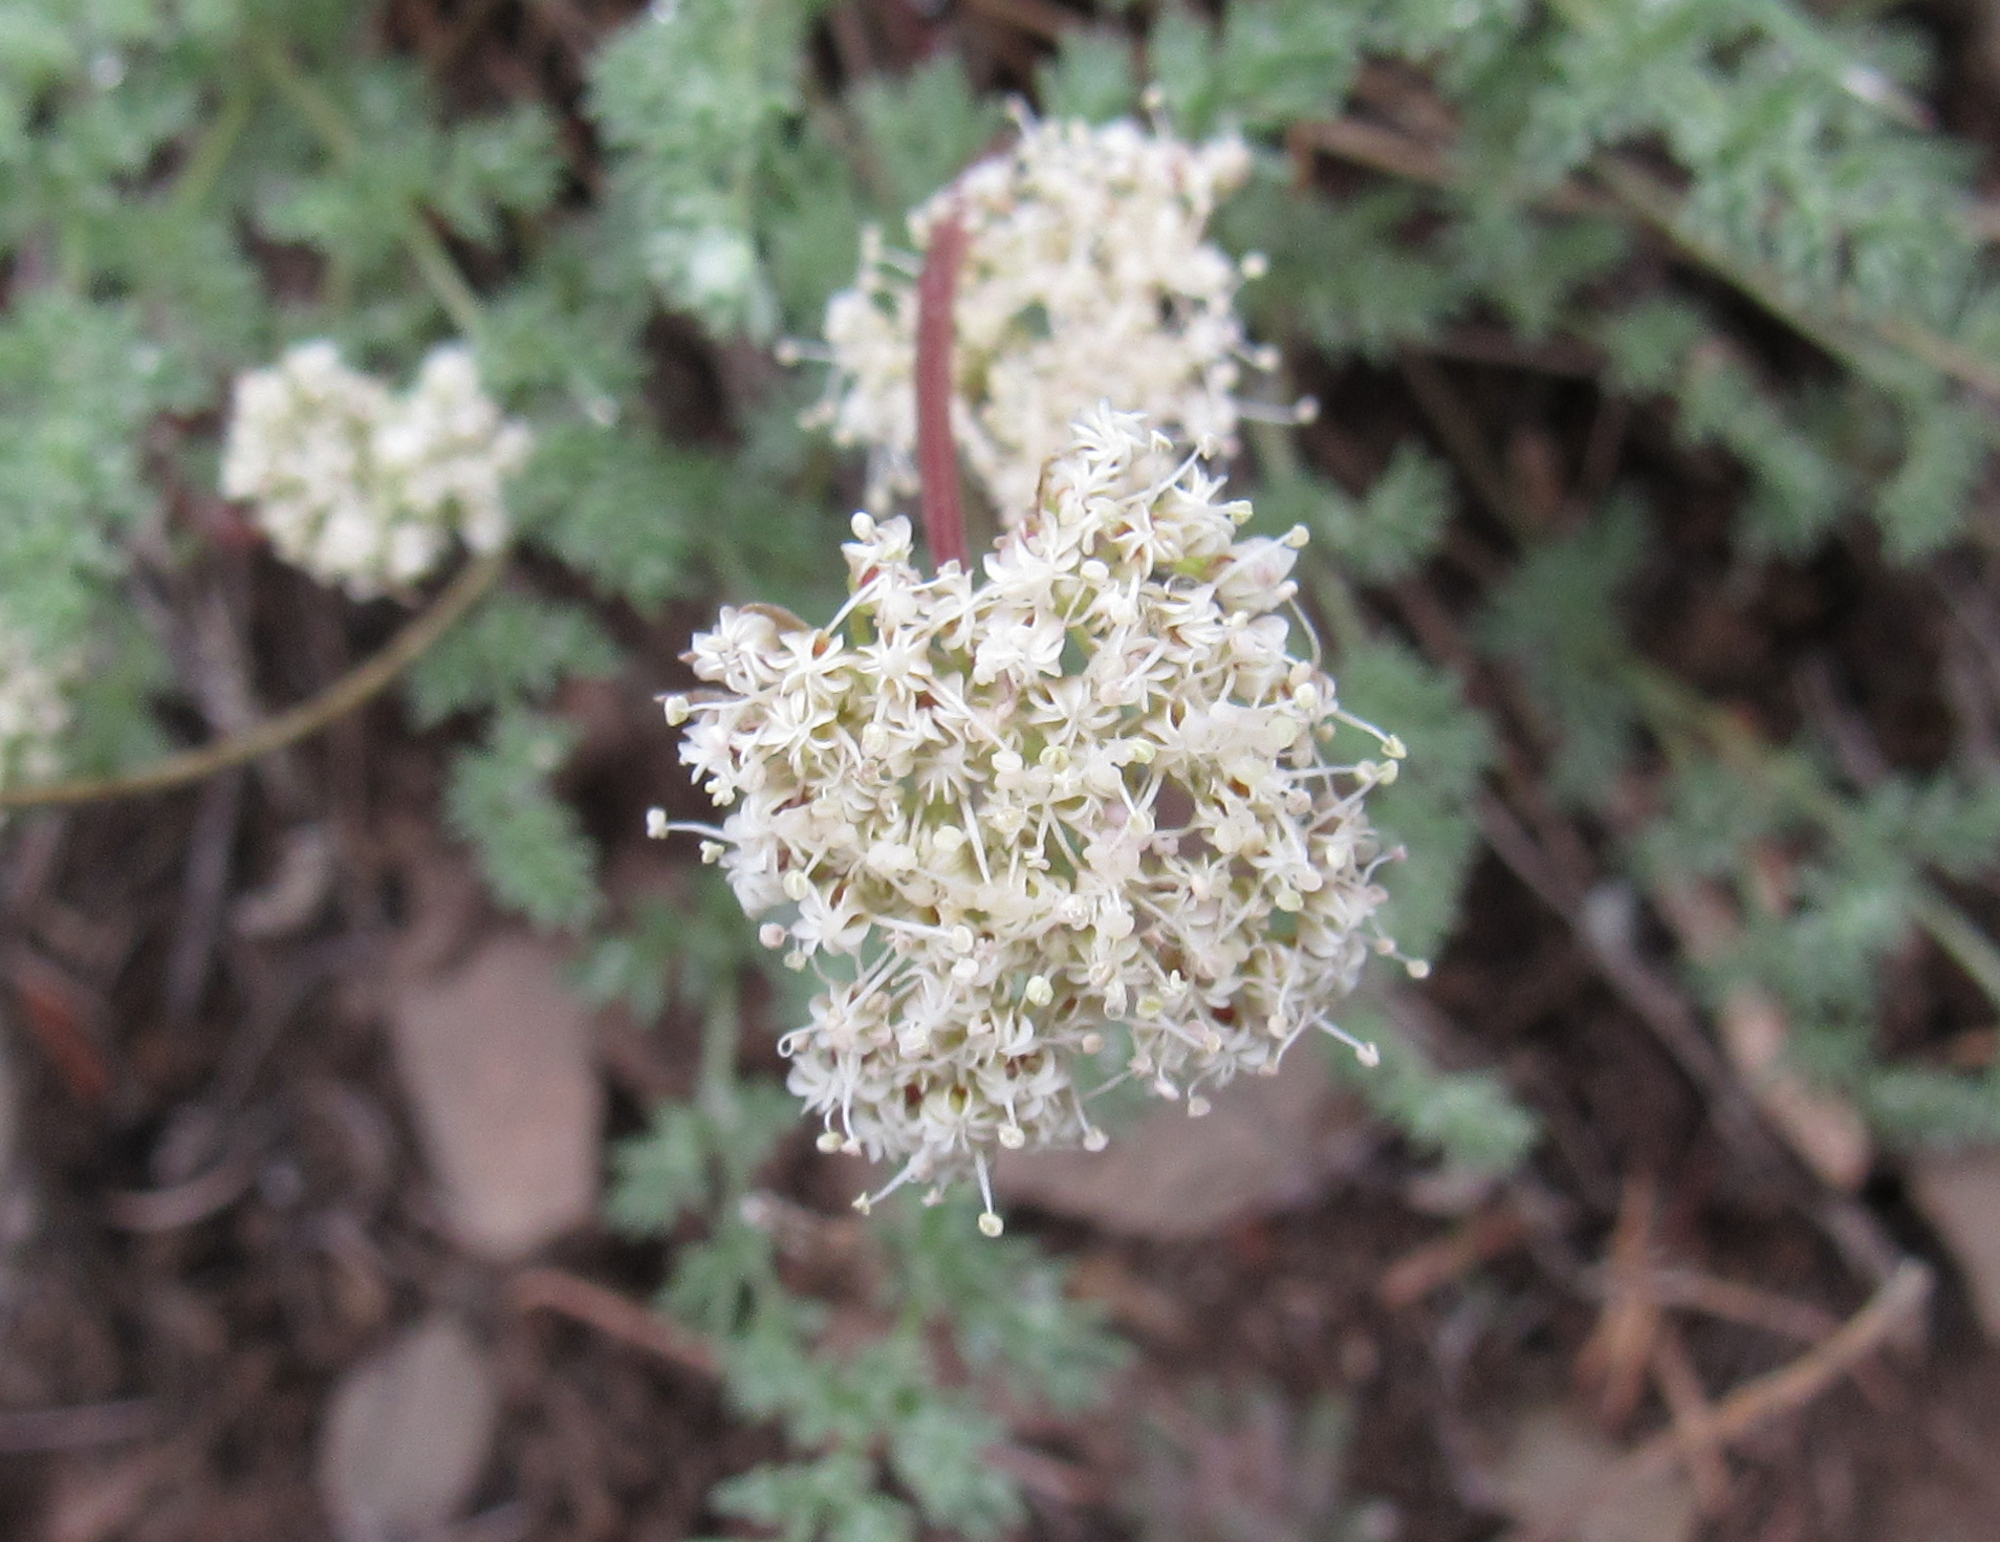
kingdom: Plantae
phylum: Tracheophyta
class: Magnoliopsida
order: Apiales
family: Apiaceae
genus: Pseudocymopterus
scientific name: Pseudocymopterus nivalis
